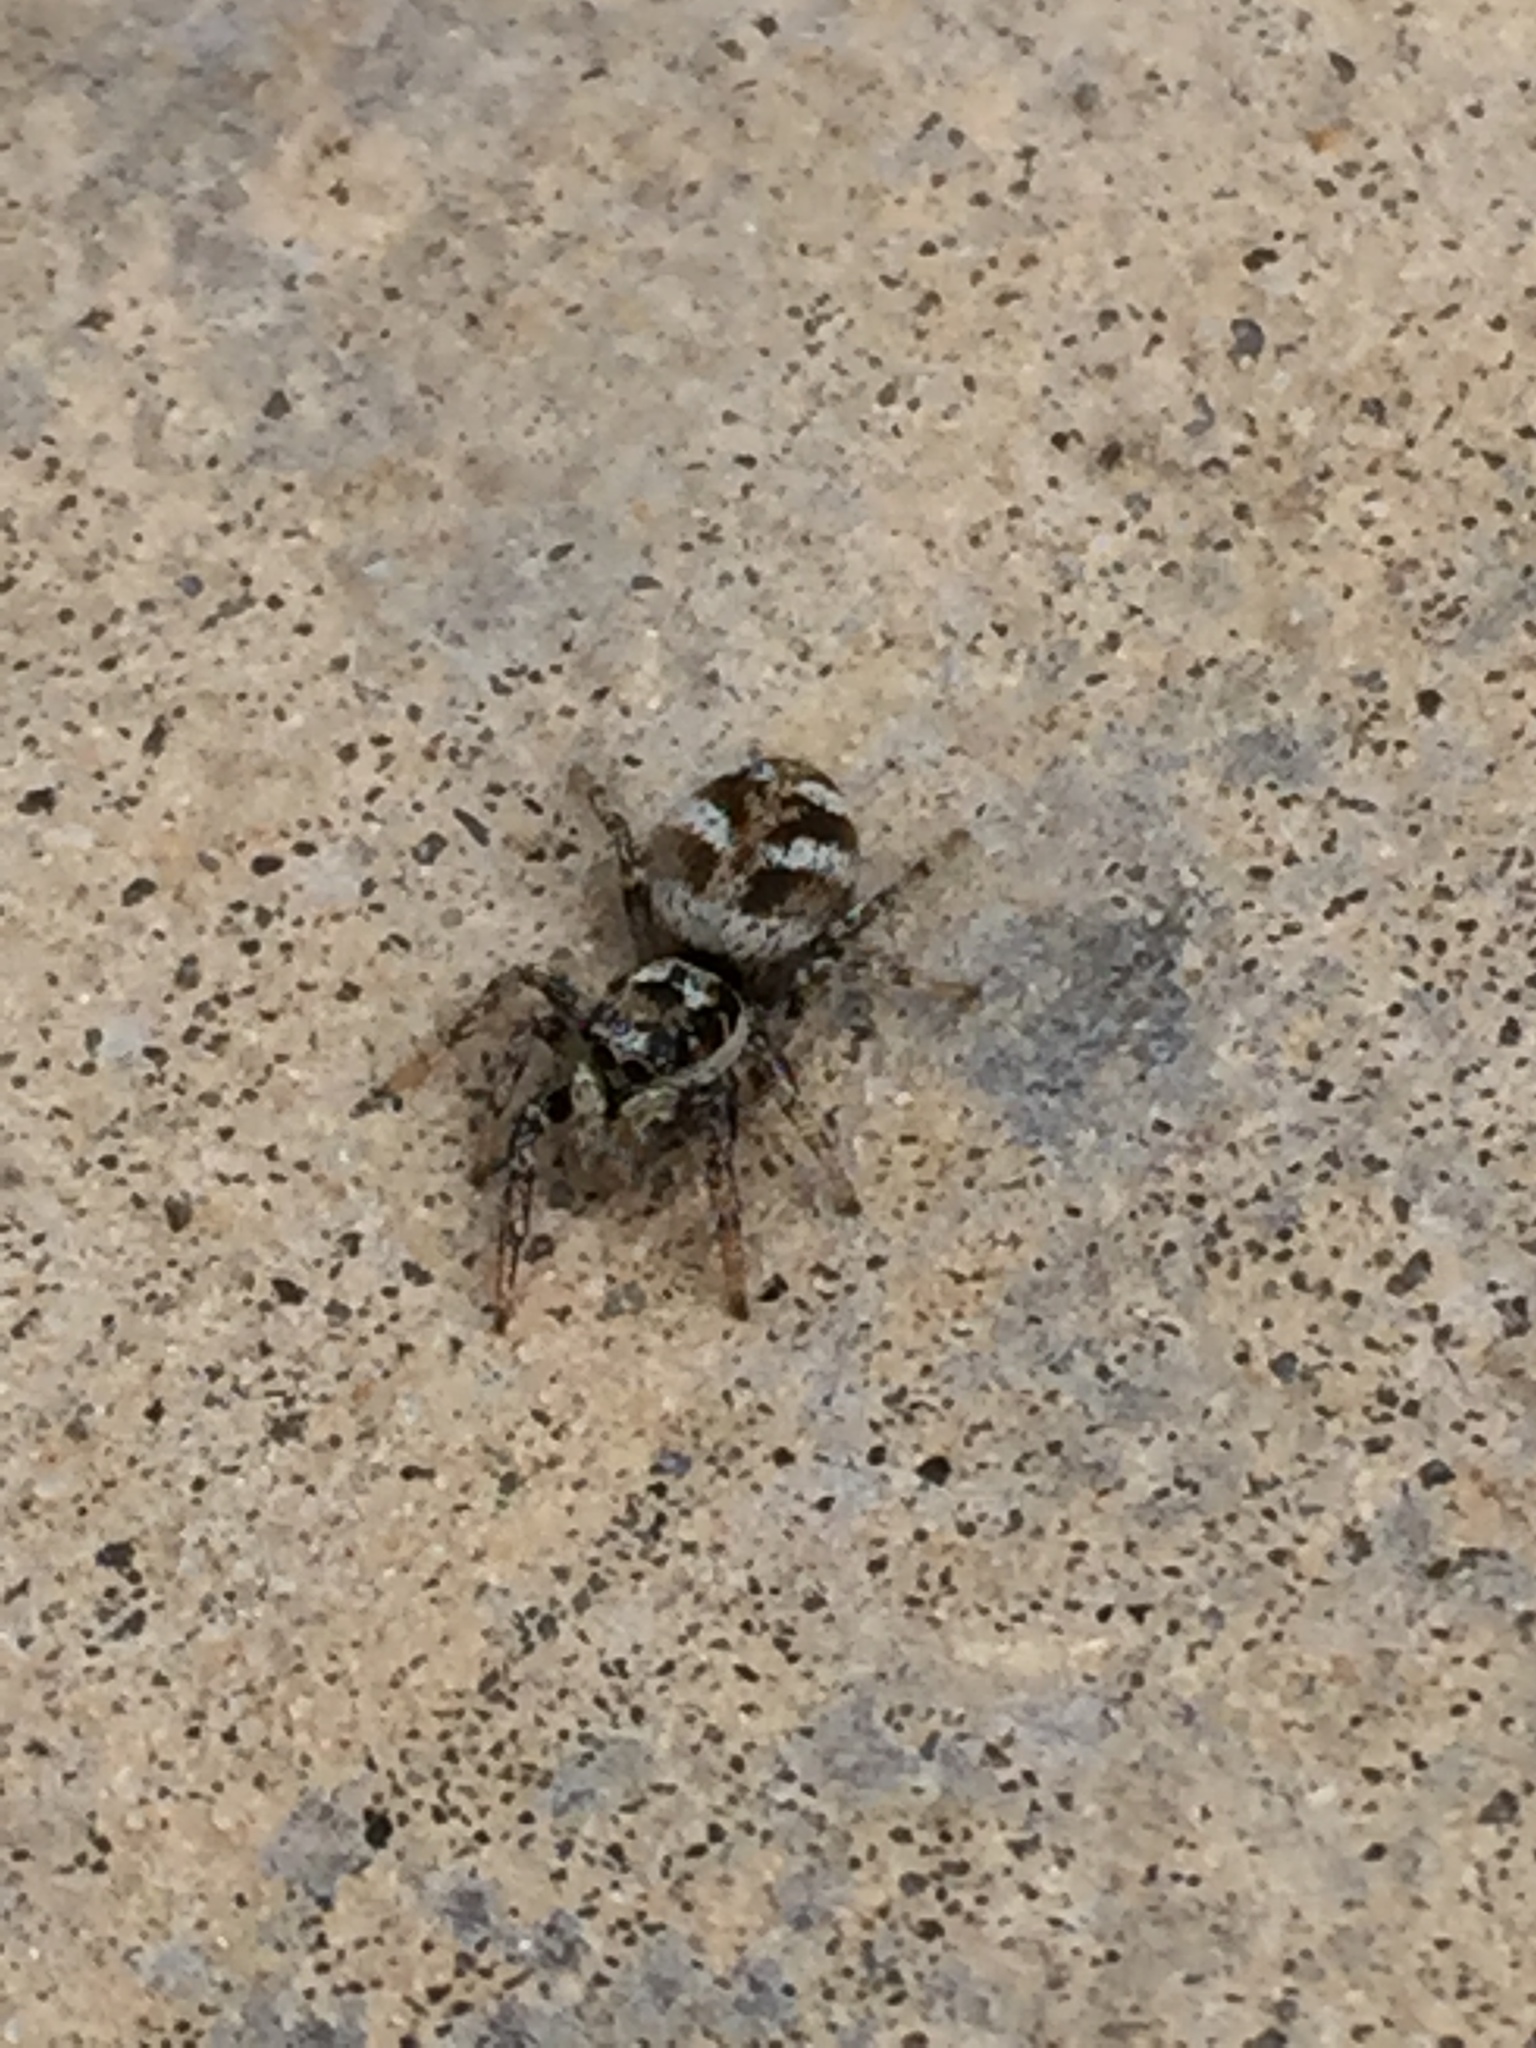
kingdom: Animalia
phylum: Arthropoda
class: Arachnida
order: Araneae
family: Salticidae
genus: Salticus
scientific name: Salticus scenicus
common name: Zebra jumper
